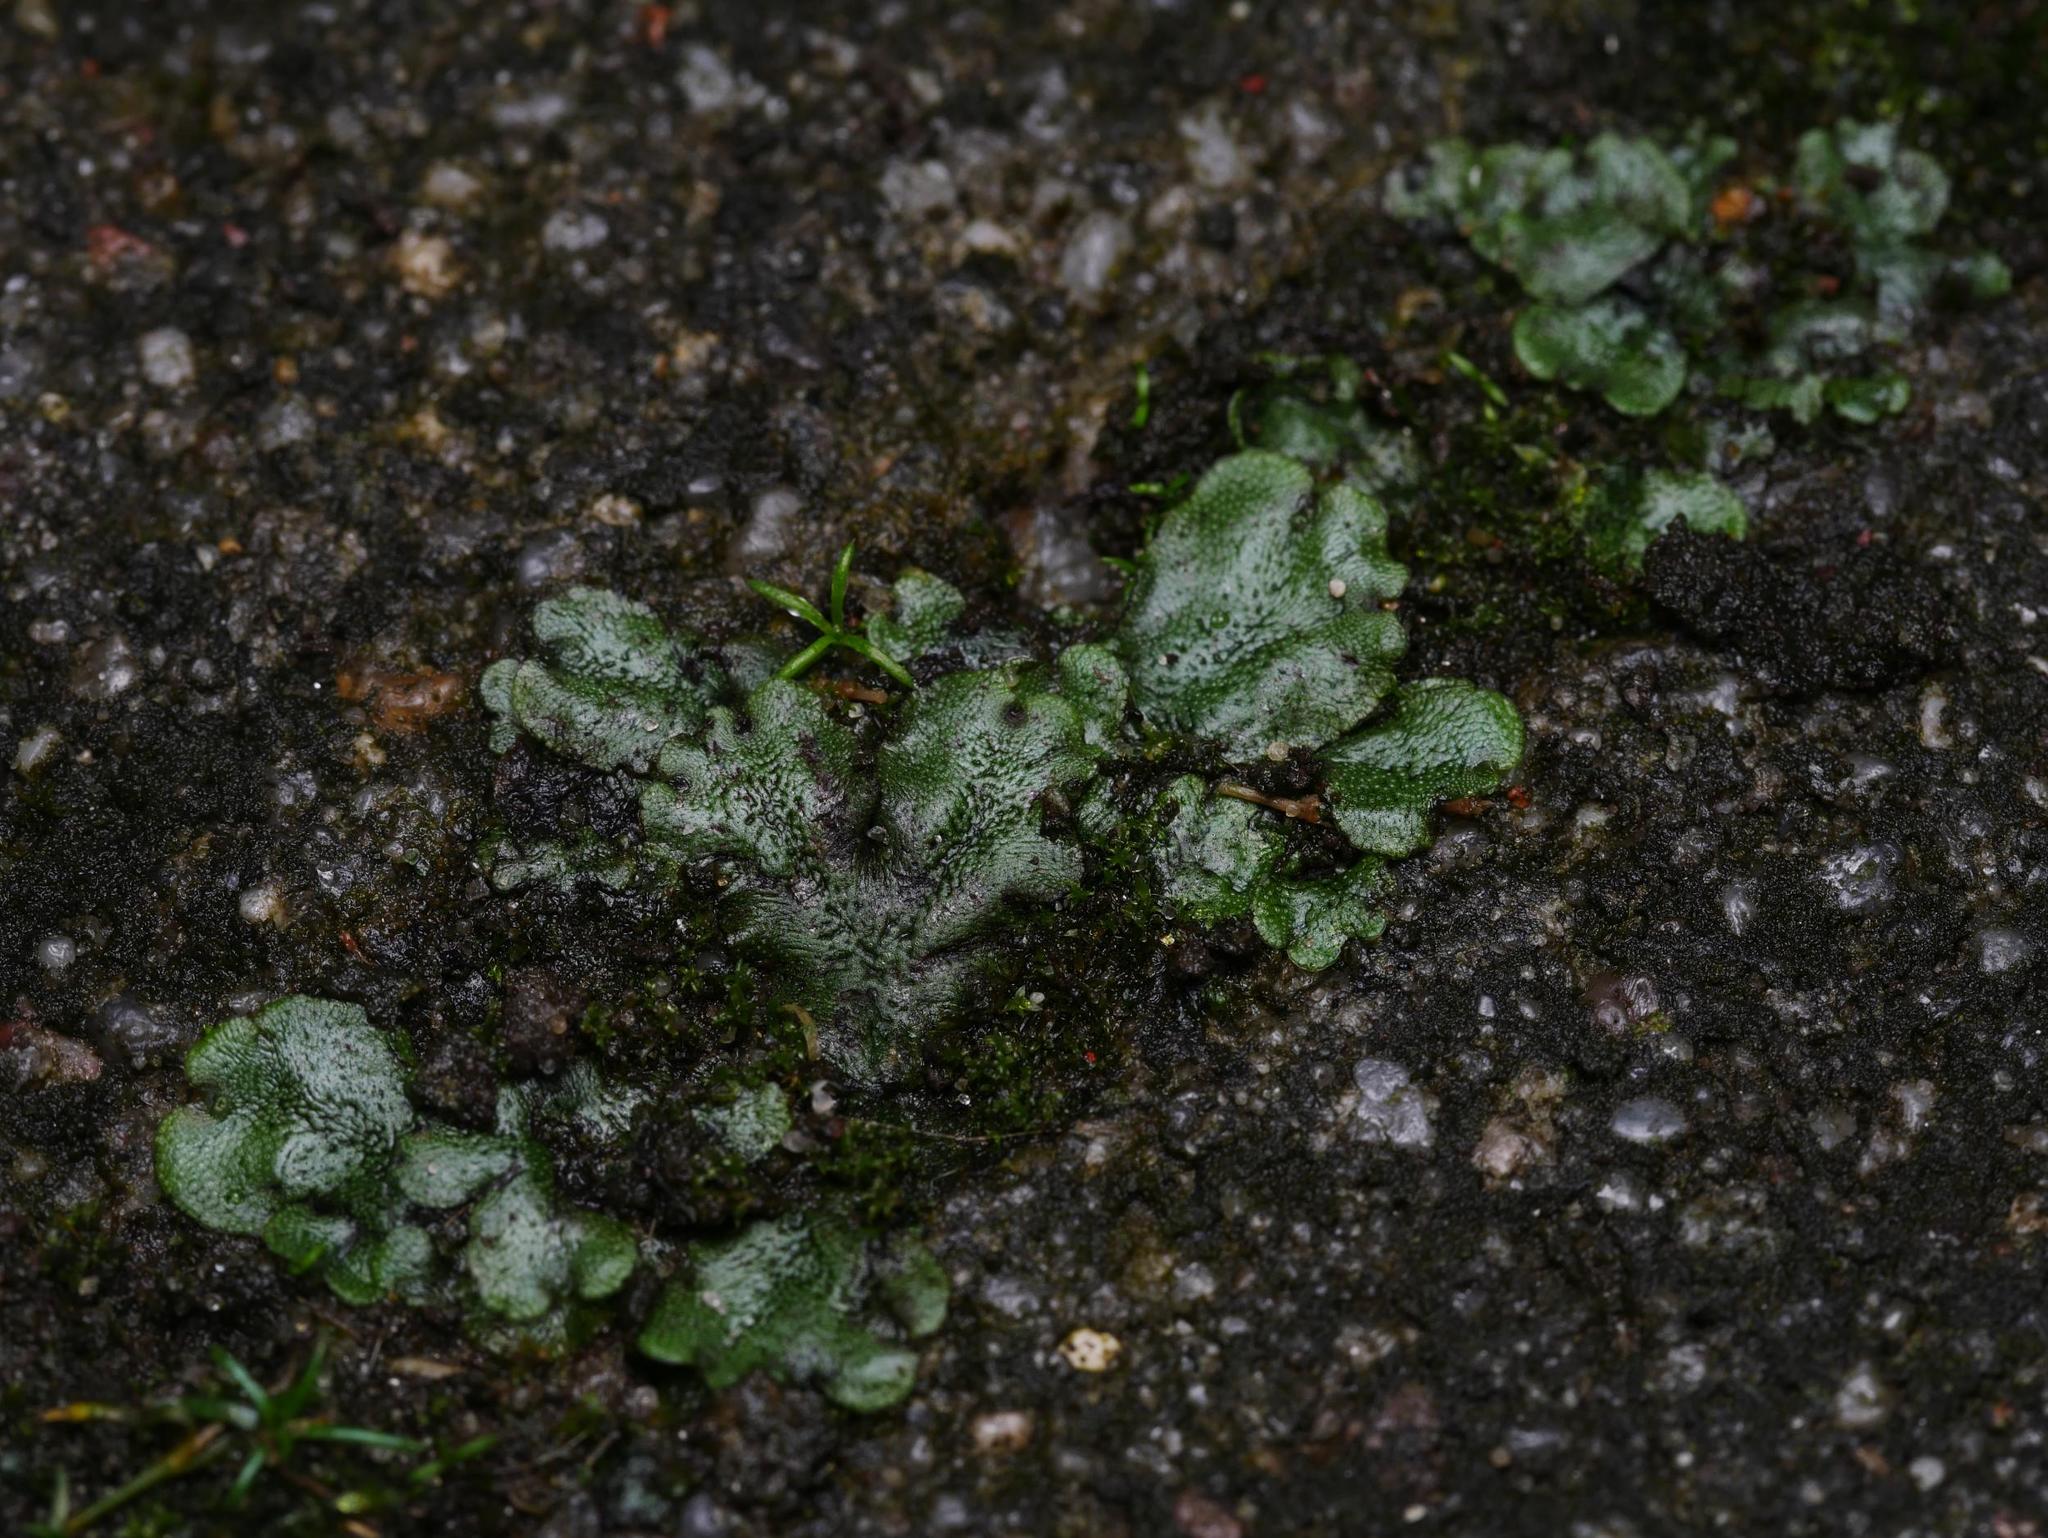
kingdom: Plantae
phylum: Marchantiophyta
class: Marchantiopsida
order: Marchantiales
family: Marchantiaceae
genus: Marchantia
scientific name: Marchantia polymorpha
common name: Common liverwort
